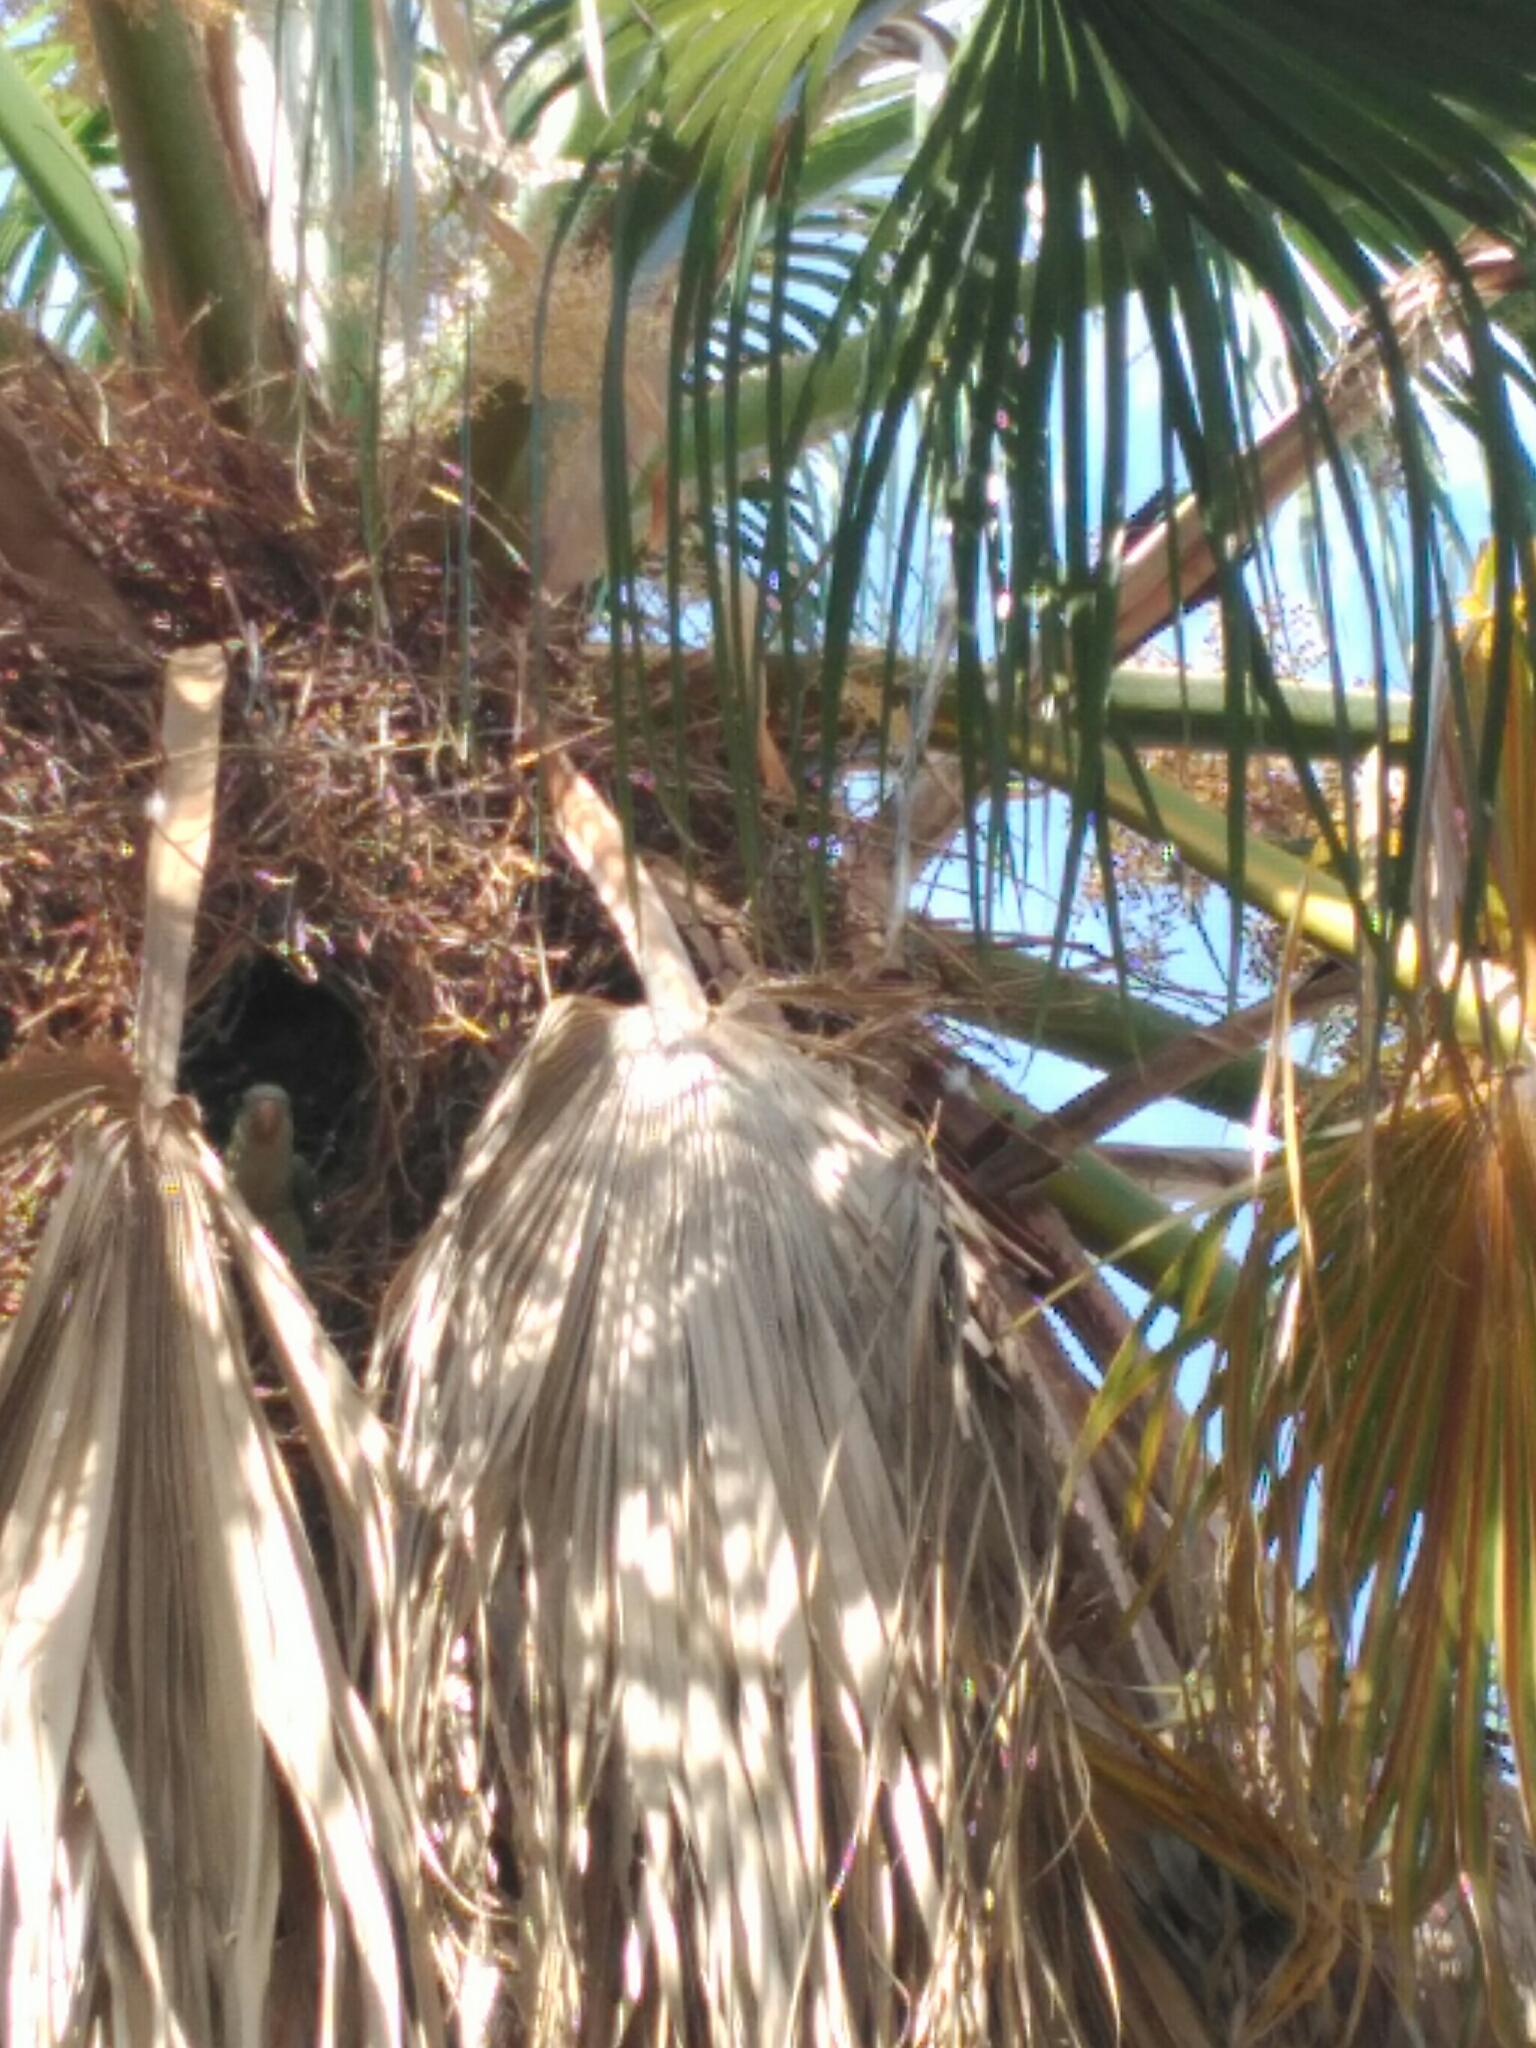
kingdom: Animalia
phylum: Chordata
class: Aves
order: Psittaciformes
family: Psittacidae
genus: Myiopsitta
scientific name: Myiopsitta monachus
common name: Monk parakeet
